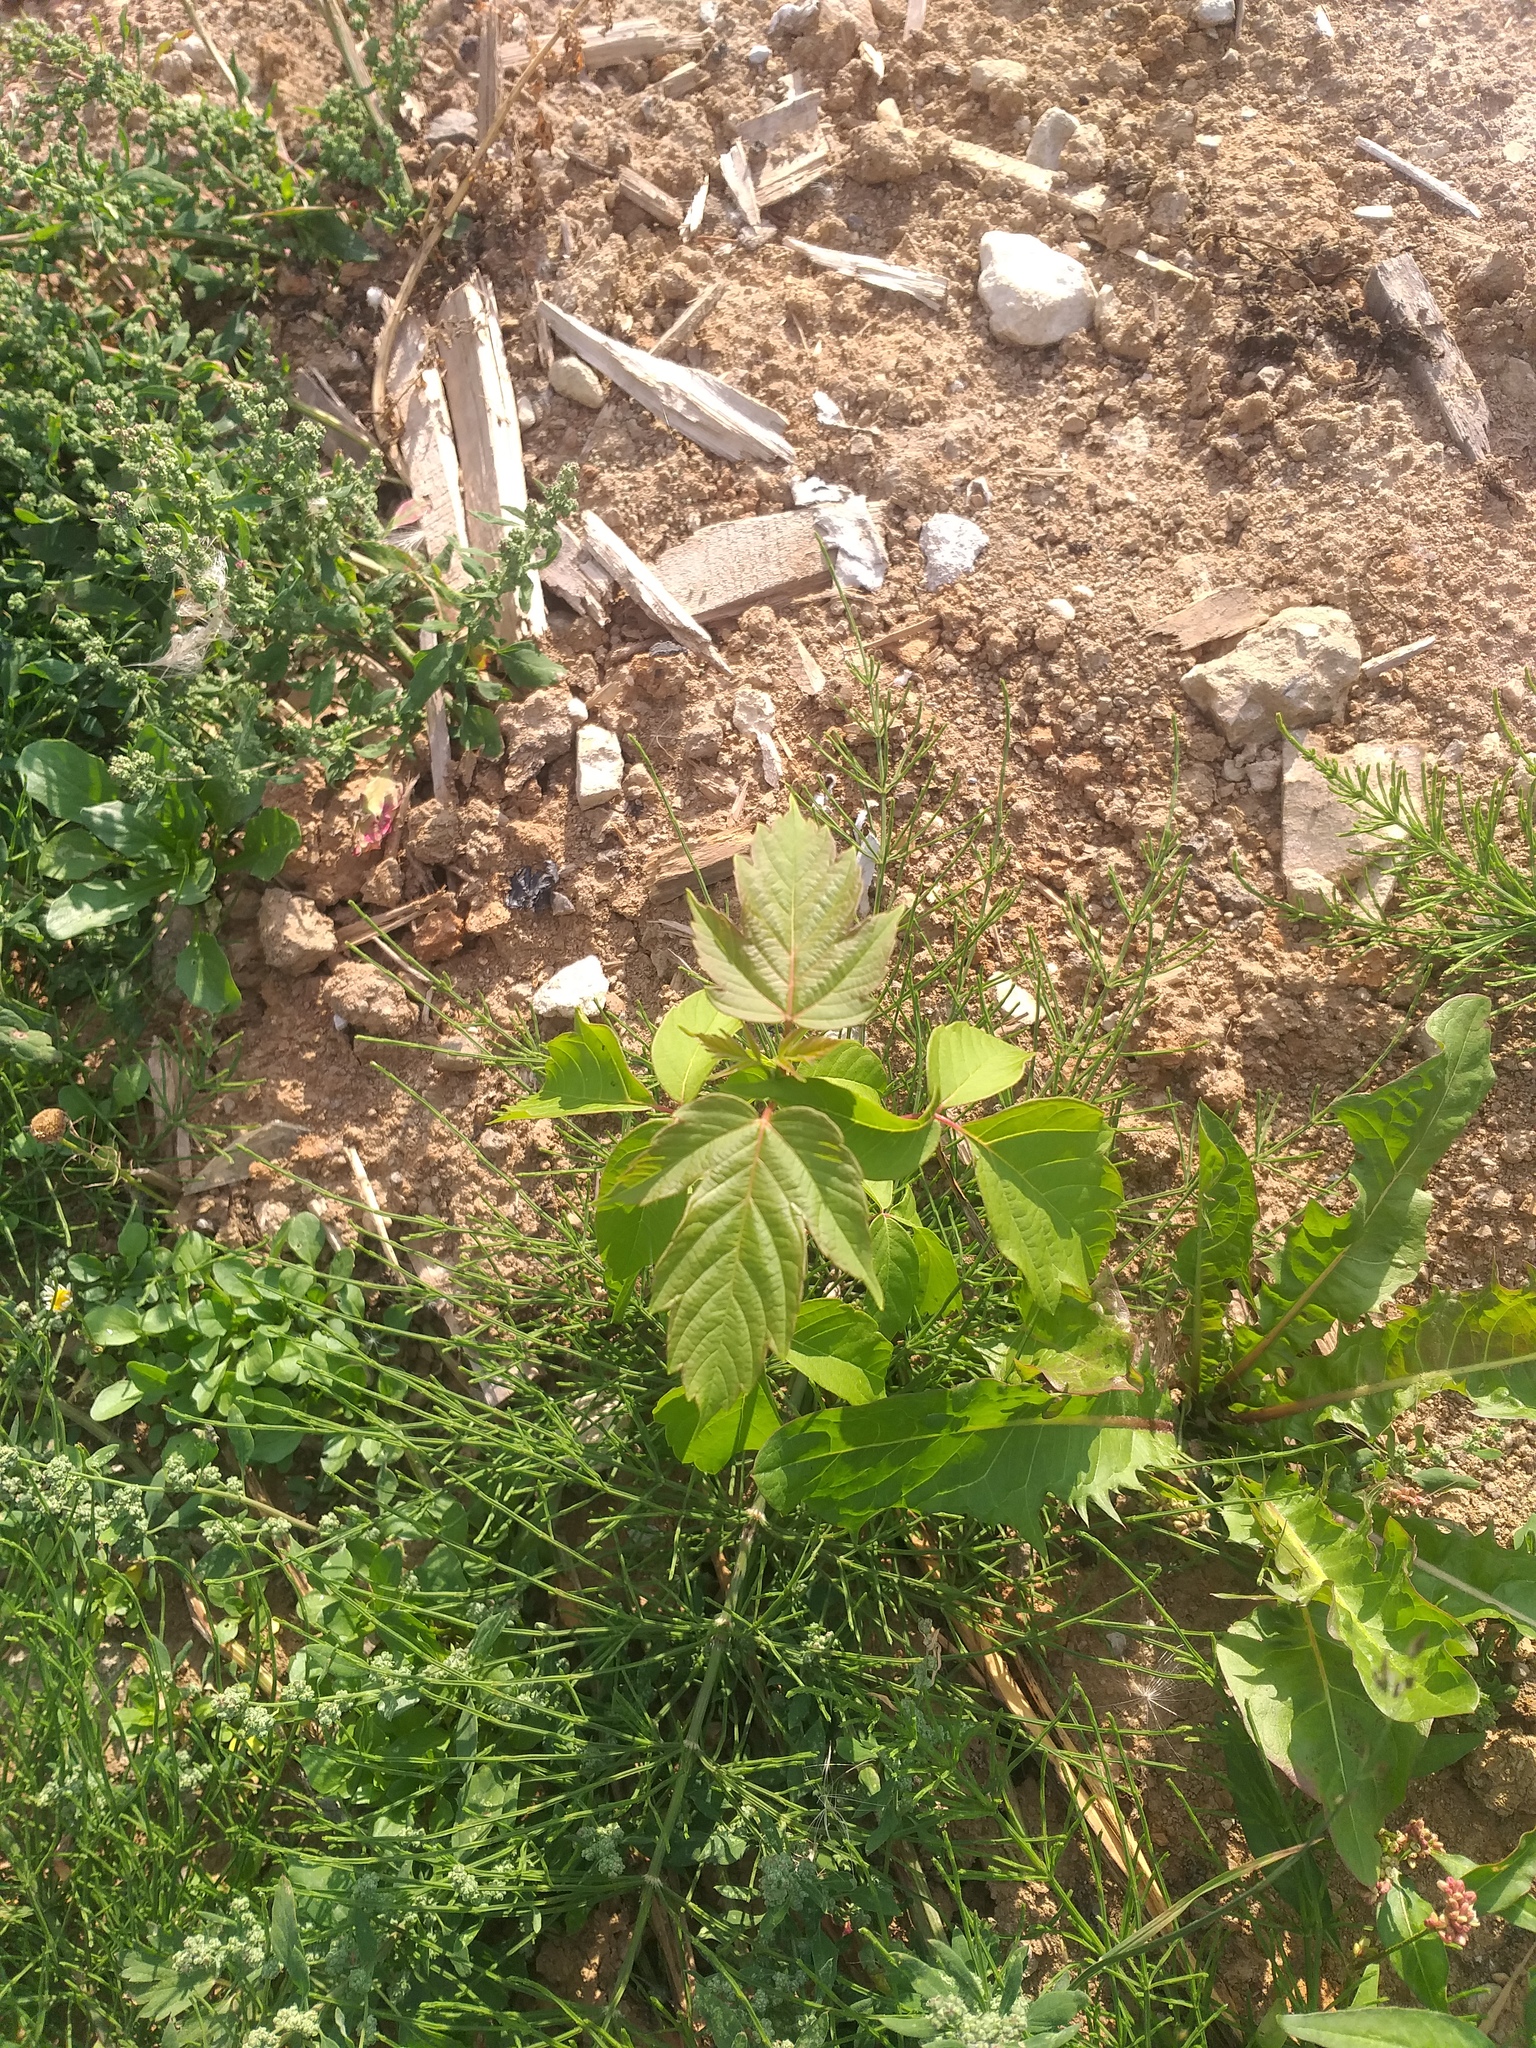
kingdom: Plantae
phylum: Tracheophyta
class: Magnoliopsida
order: Sapindales
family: Sapindaceae
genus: Acer
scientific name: Acer negundo
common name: Ashleaf maple
